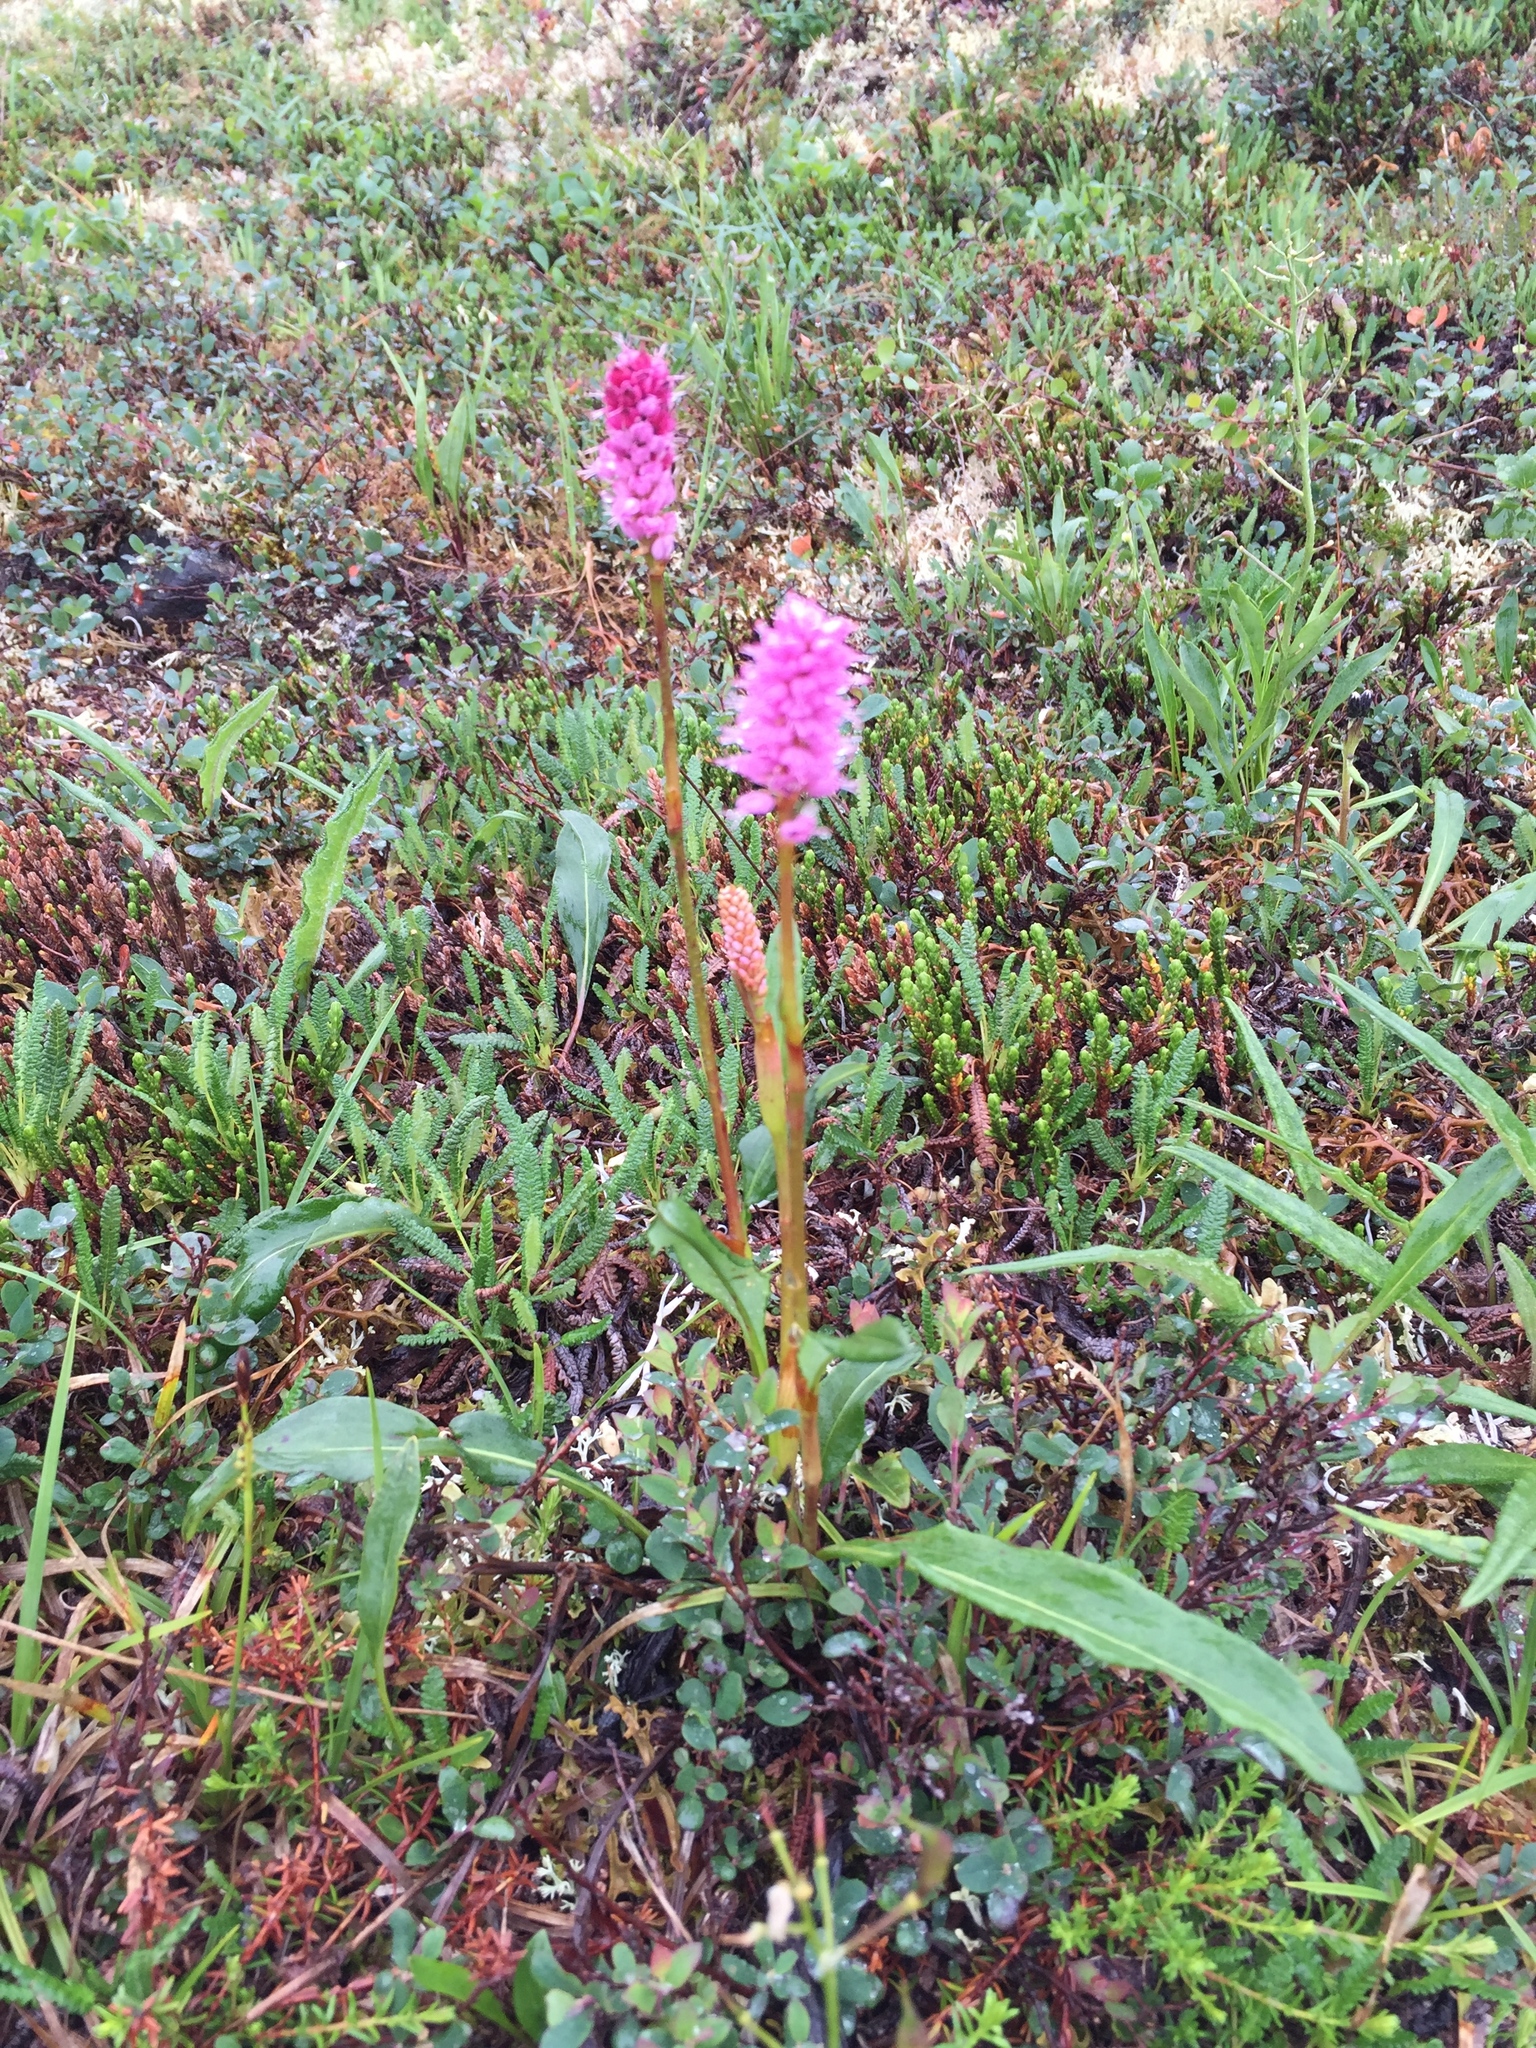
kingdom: Plantae
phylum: Tracheophyta
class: Magnoliopsida
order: Caryophyllales
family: Polygonaceae
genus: Bistorta
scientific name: Bistorta plumosa
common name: Meadow bistort
